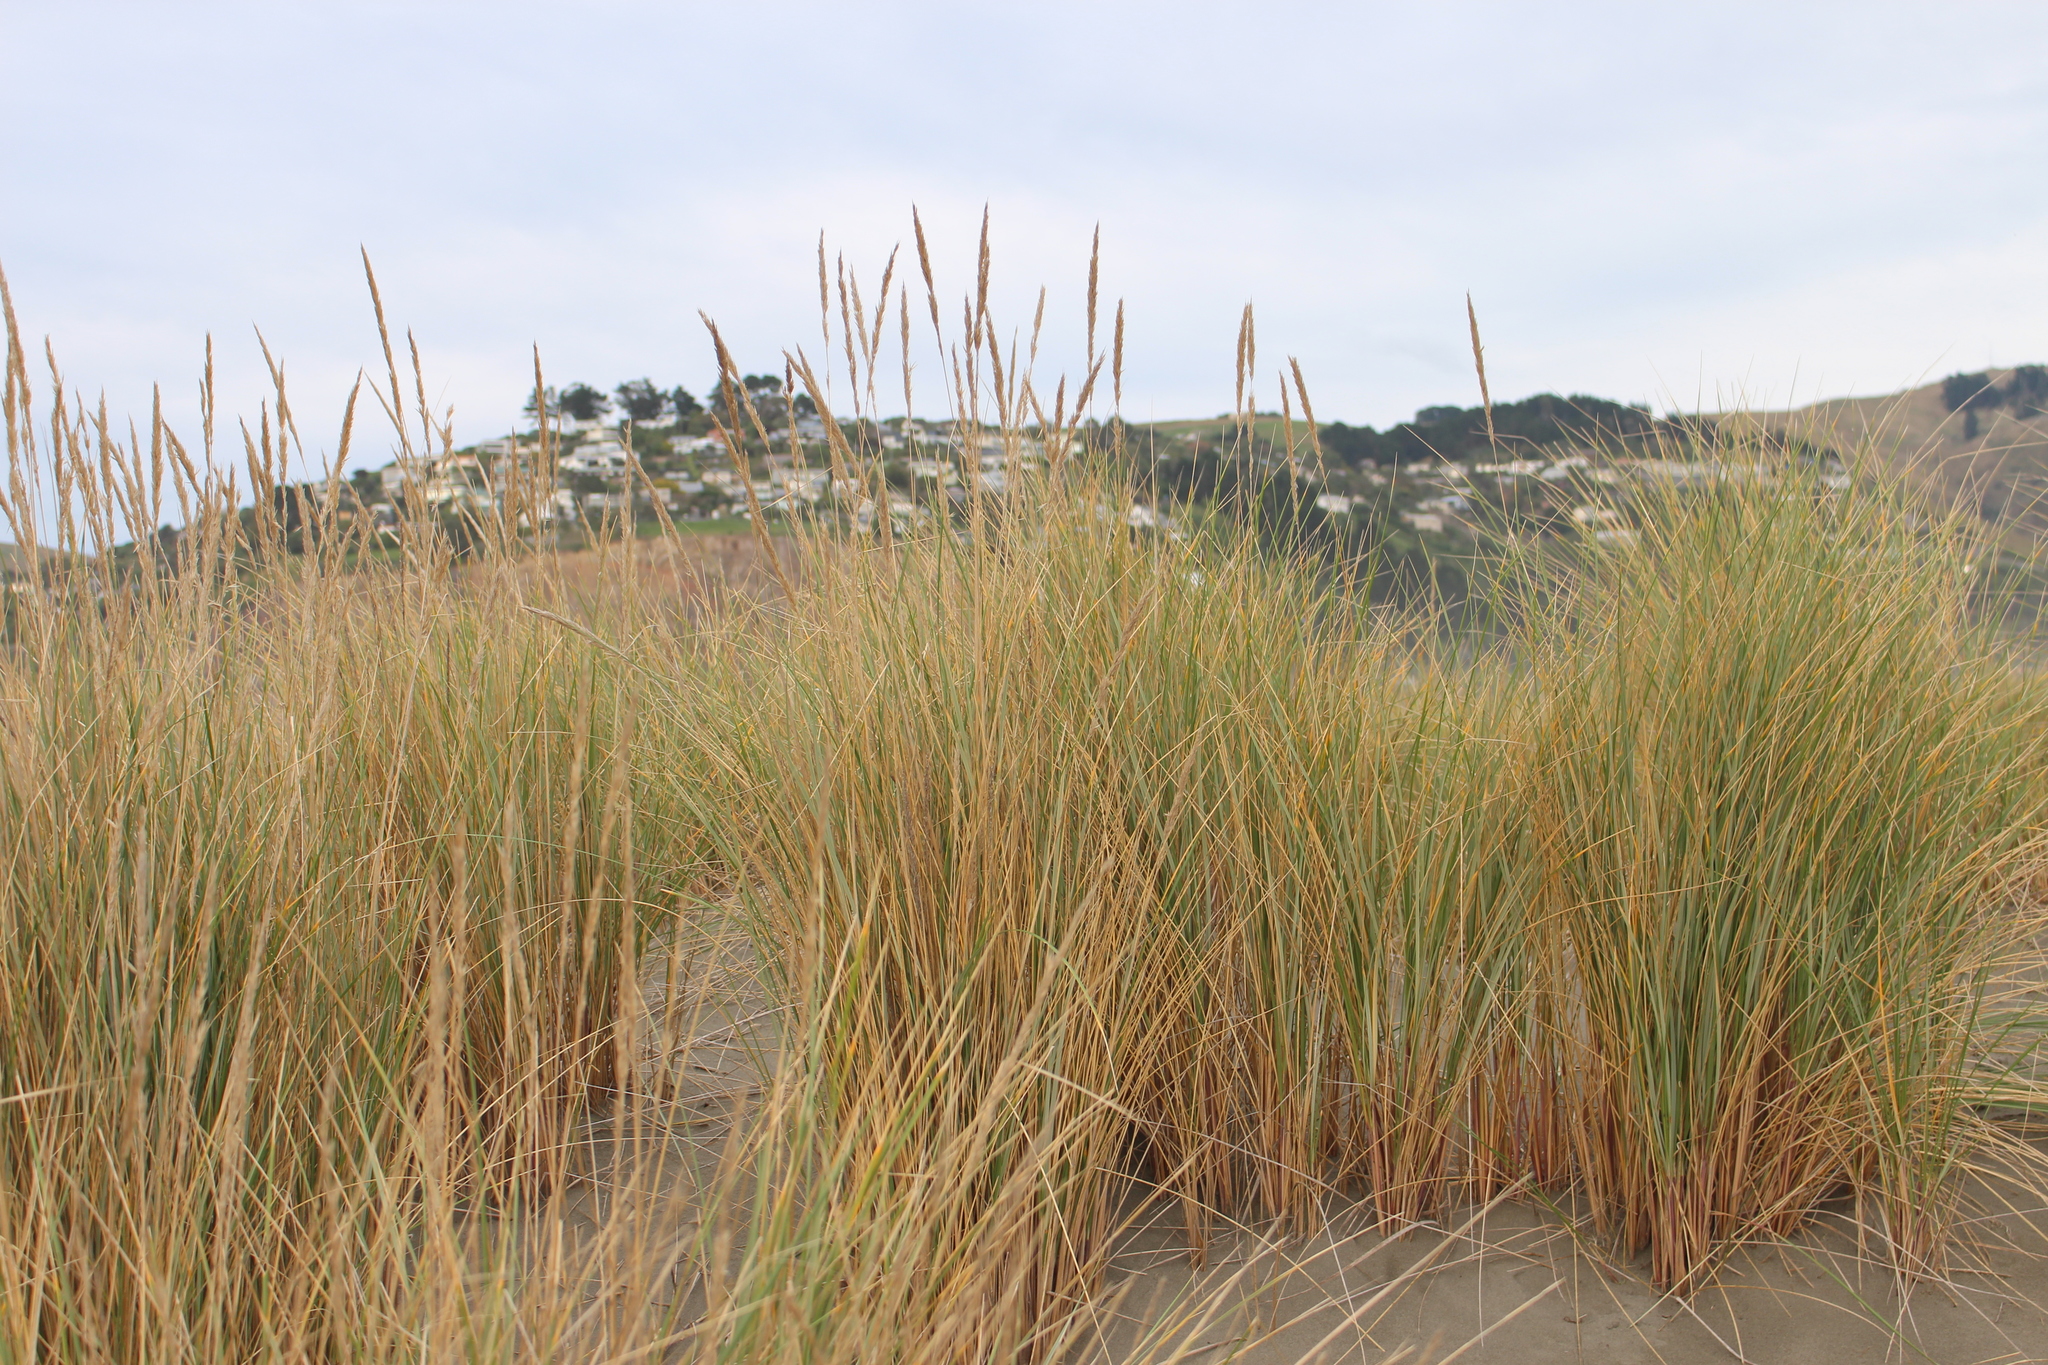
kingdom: Plantae
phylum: Tracheophyta
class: Liliopsida
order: Poales
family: Poaceae
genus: Calamagrostis
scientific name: Calamagrostis arenaria
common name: European beachgrass
